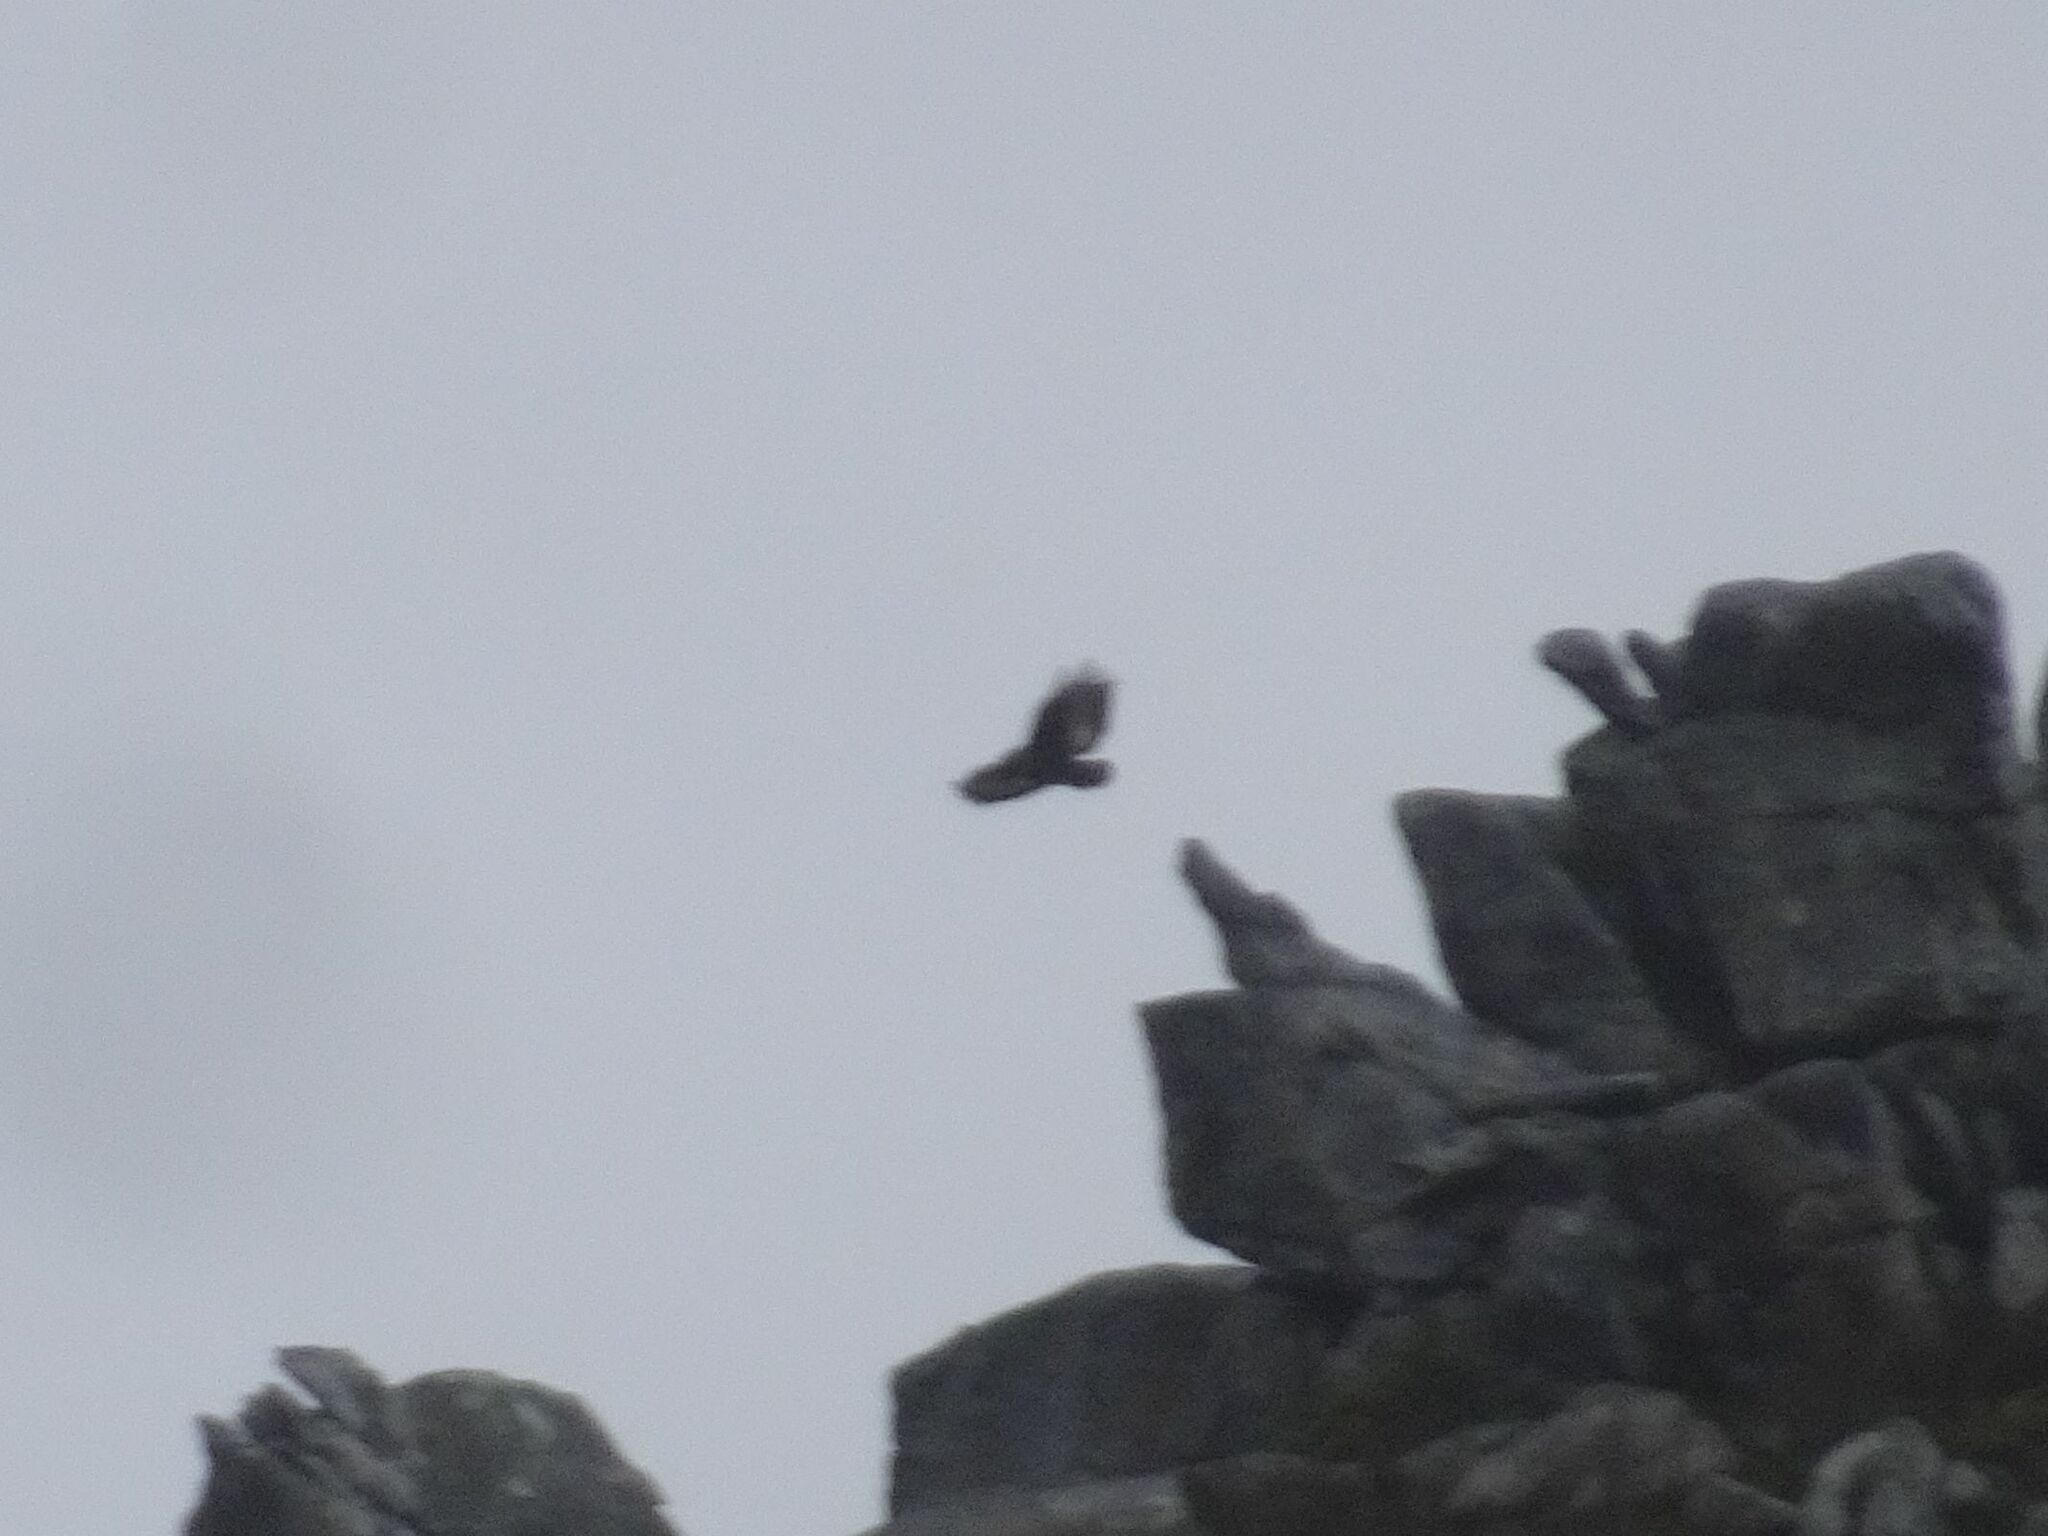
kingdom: Animalia
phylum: Chordata
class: Aves
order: Accipitriformes
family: Accipitridae
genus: Buteo
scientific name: Buteo rufofuscus
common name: Jackal buzzard
